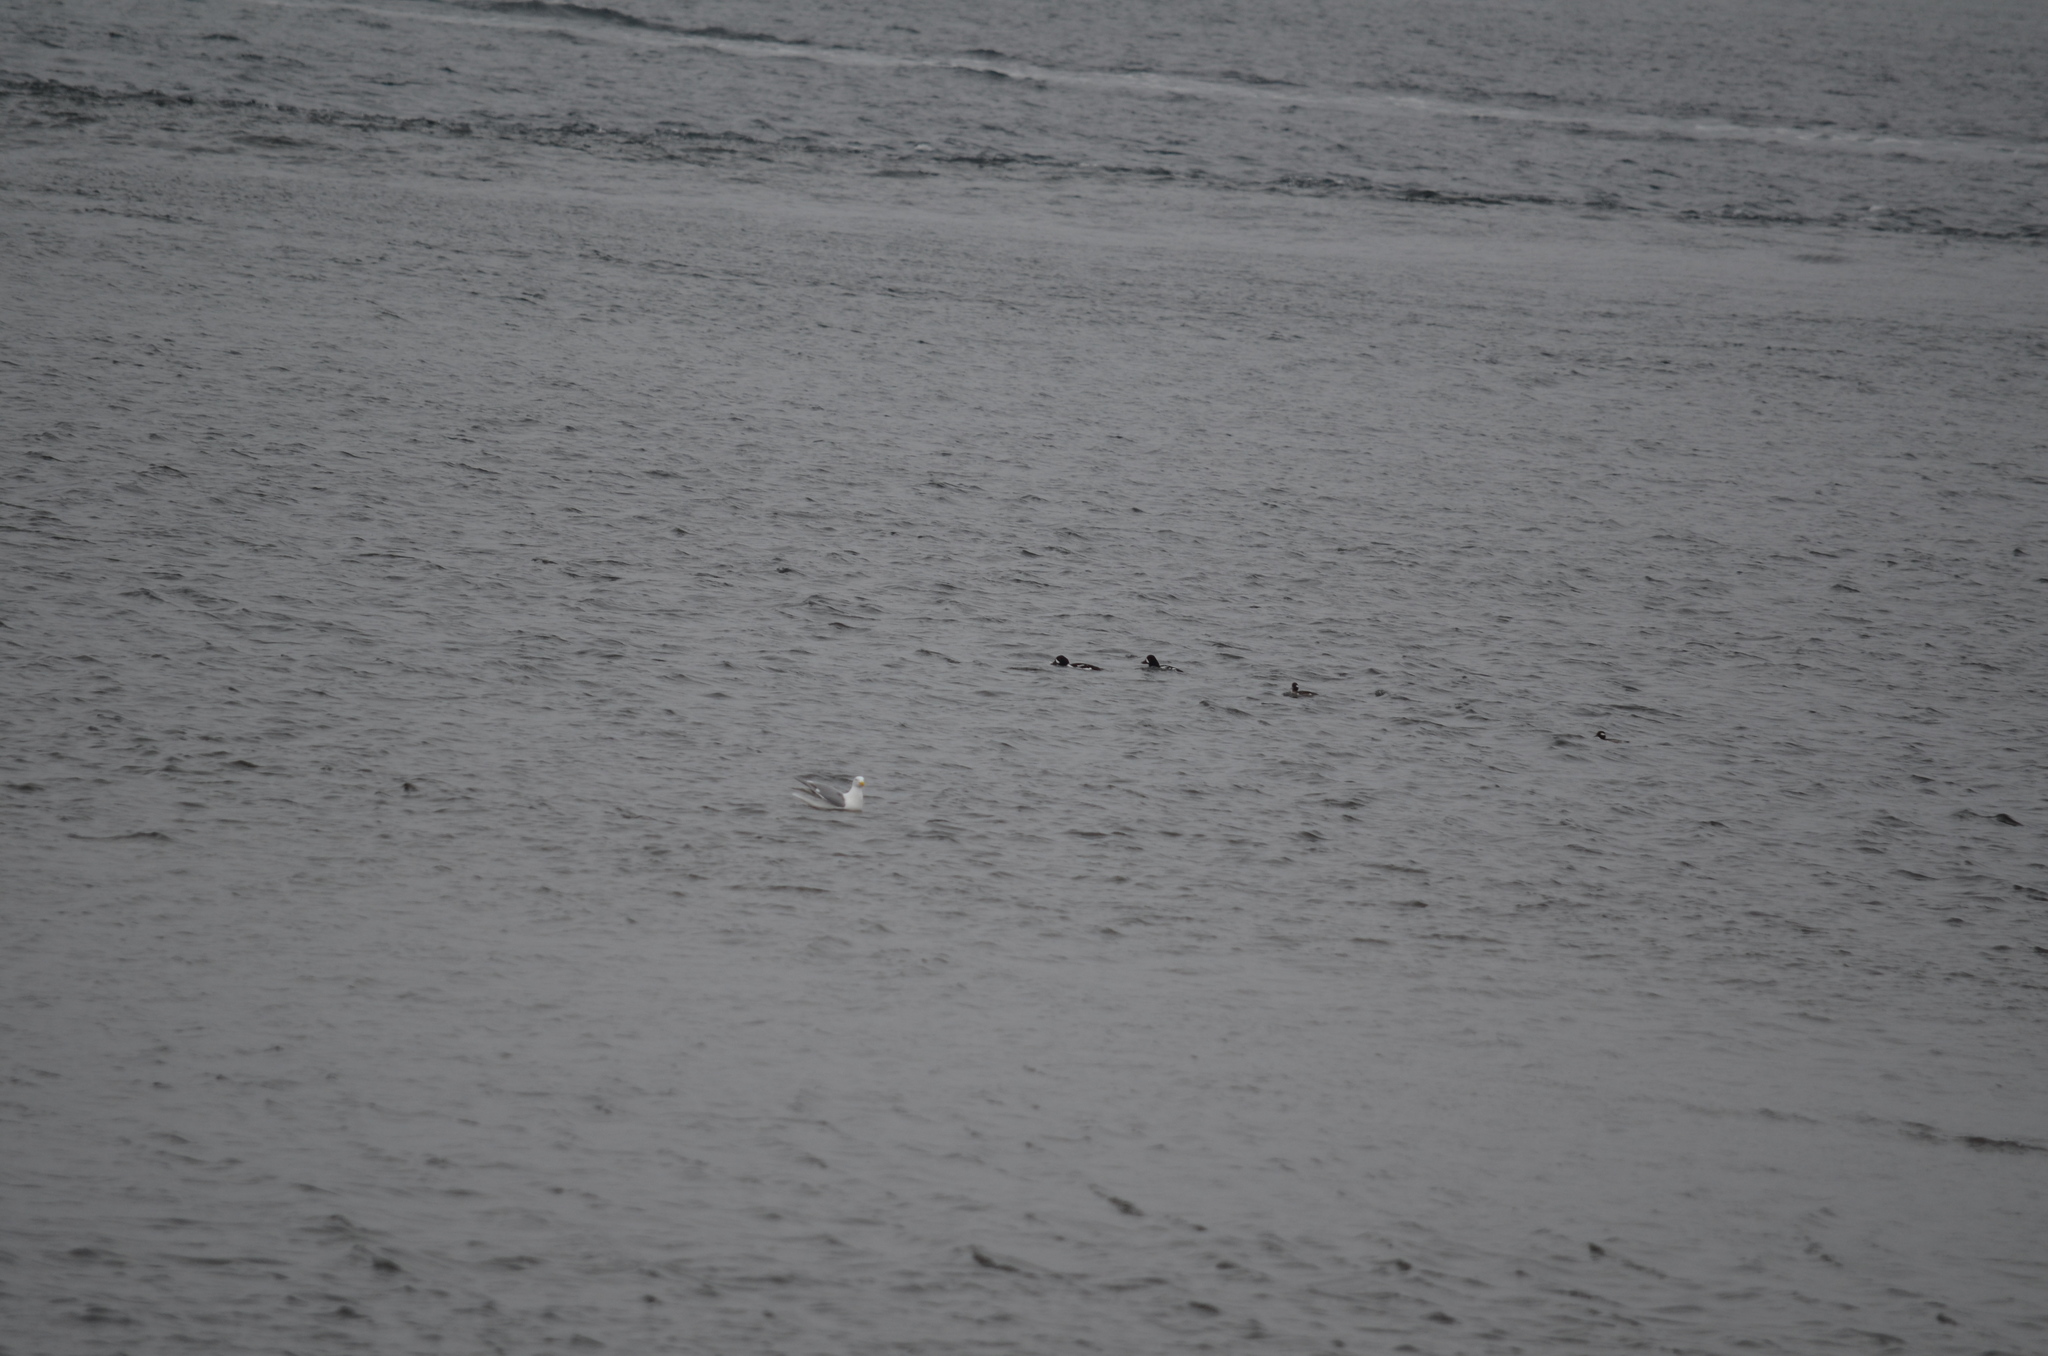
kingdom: Animalia
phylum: Chordata
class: Aves
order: Anseriformes
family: Anatidae
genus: Bucephala
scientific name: Bucephala islandica
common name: Barrow's goldeneye
